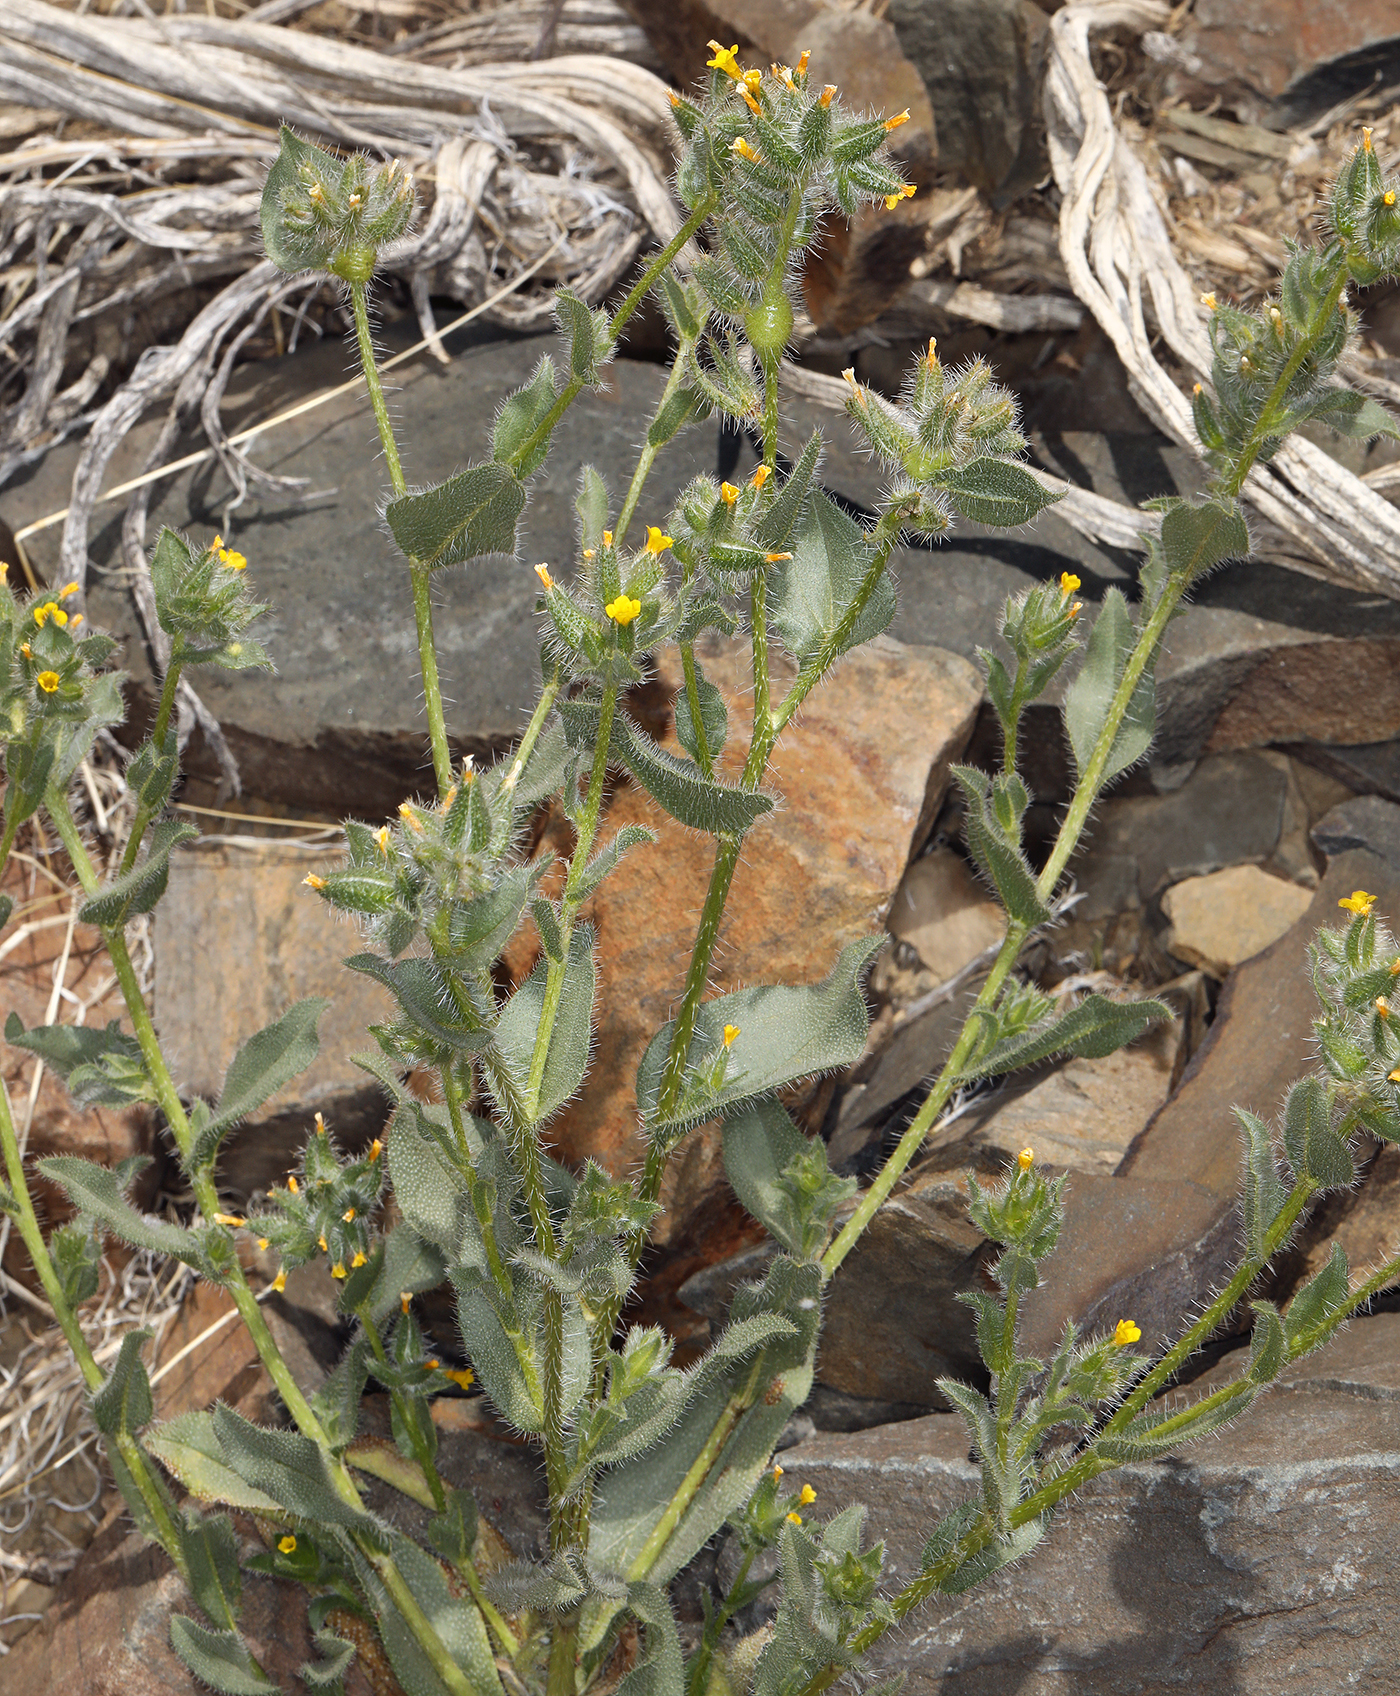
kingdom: Plantae
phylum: Tracheophyta
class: Magnoliopsida
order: Boraginales
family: Boraginaceae
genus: Amsinckia
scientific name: Amsinckia tessellata
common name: Tessellate fiddleneck
